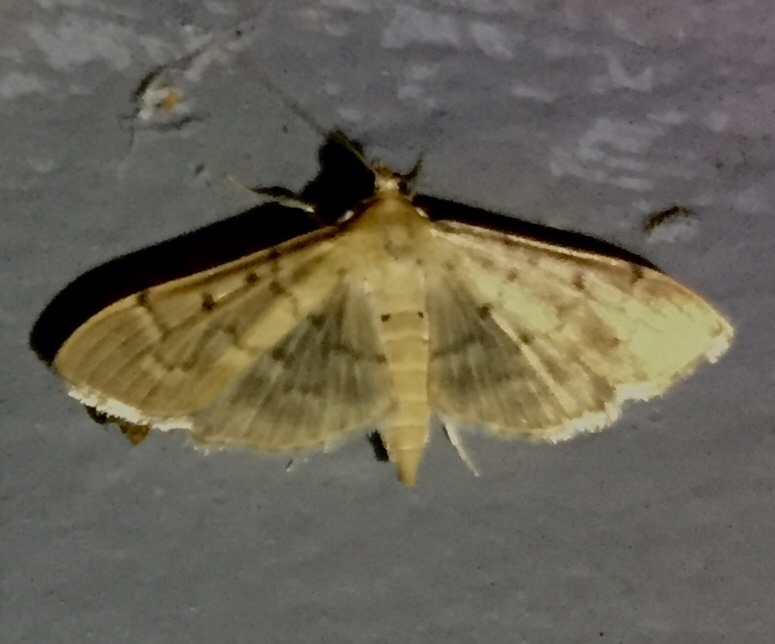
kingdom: Animalia
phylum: Arthropoda
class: Insecta
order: Lepidoptera
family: Crambidae
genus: Herpetogramma
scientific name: Herpetogramma bipunctalis
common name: Southern beet webworm
